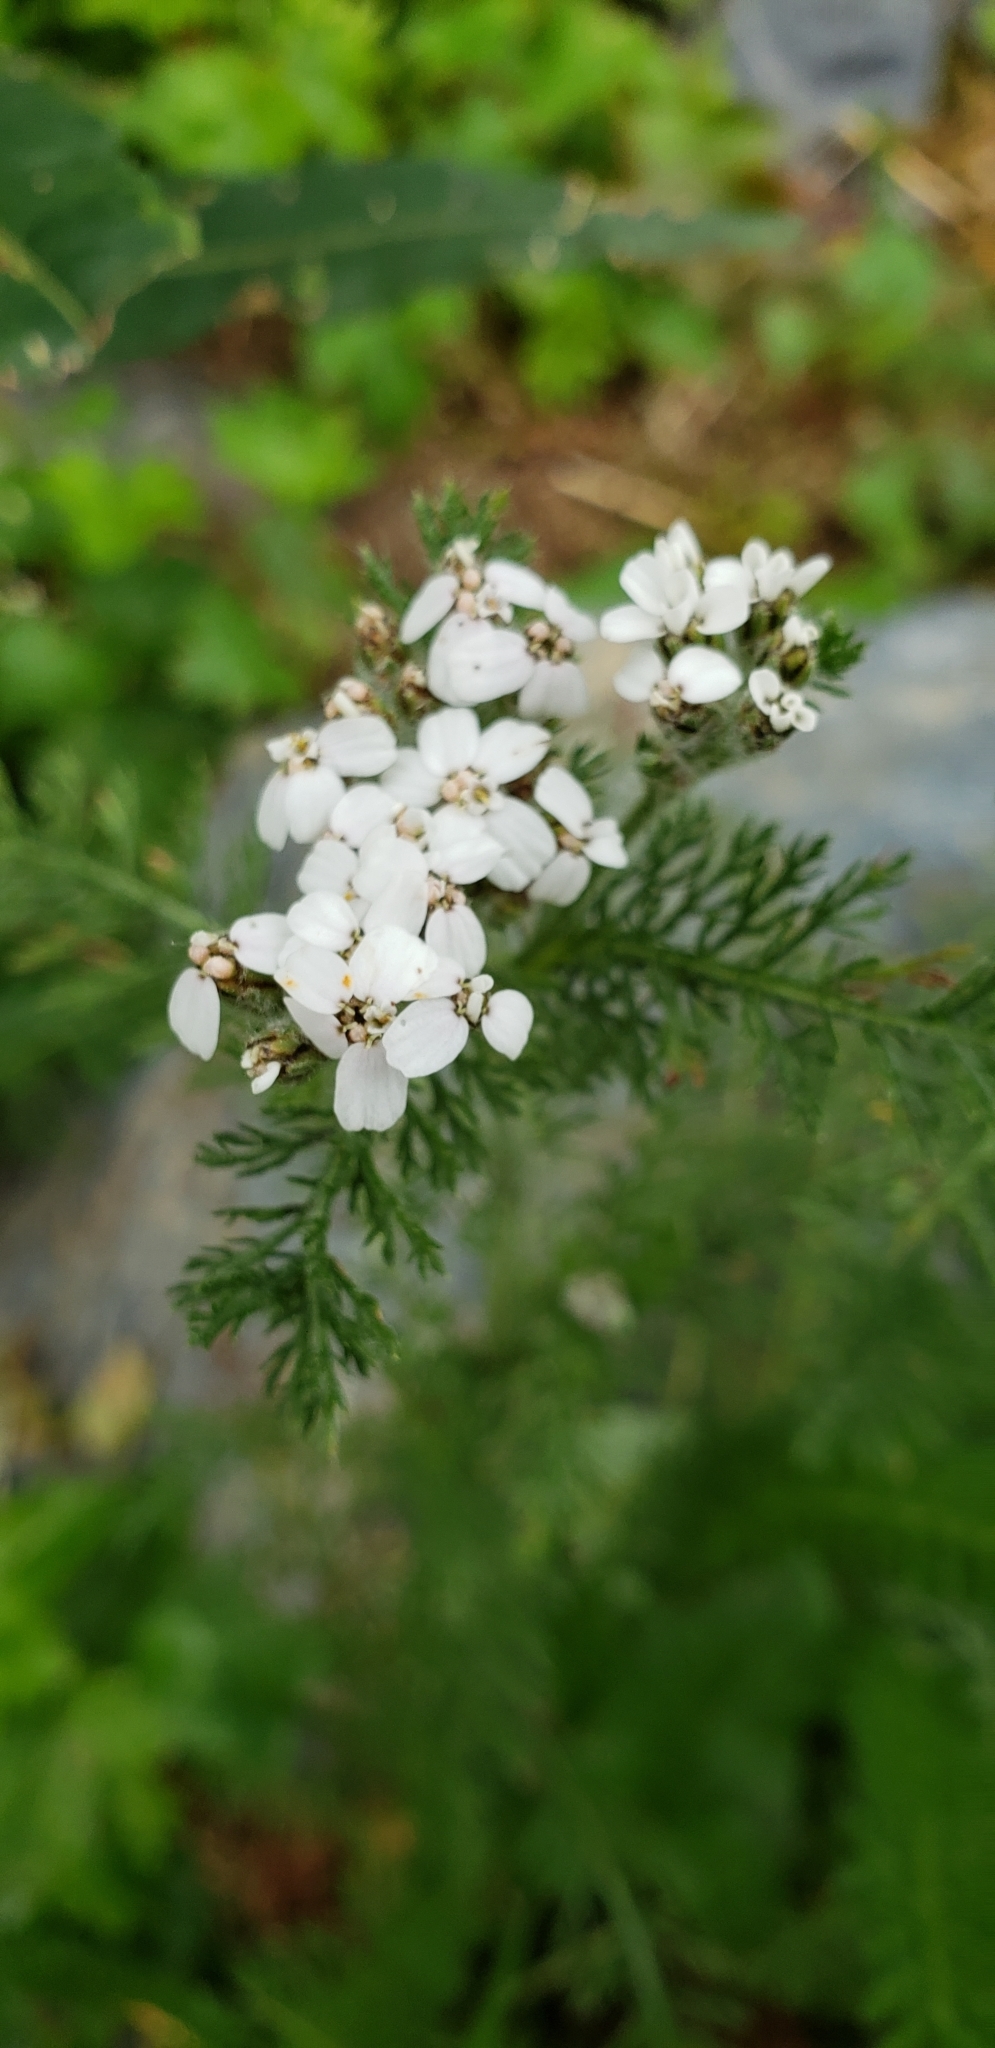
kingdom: Plantae
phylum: Tracheophyta
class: Magnoliopsida
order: Asterales
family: Asteraceae
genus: Achillea
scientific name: Achillea millefolium
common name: Yarrow
